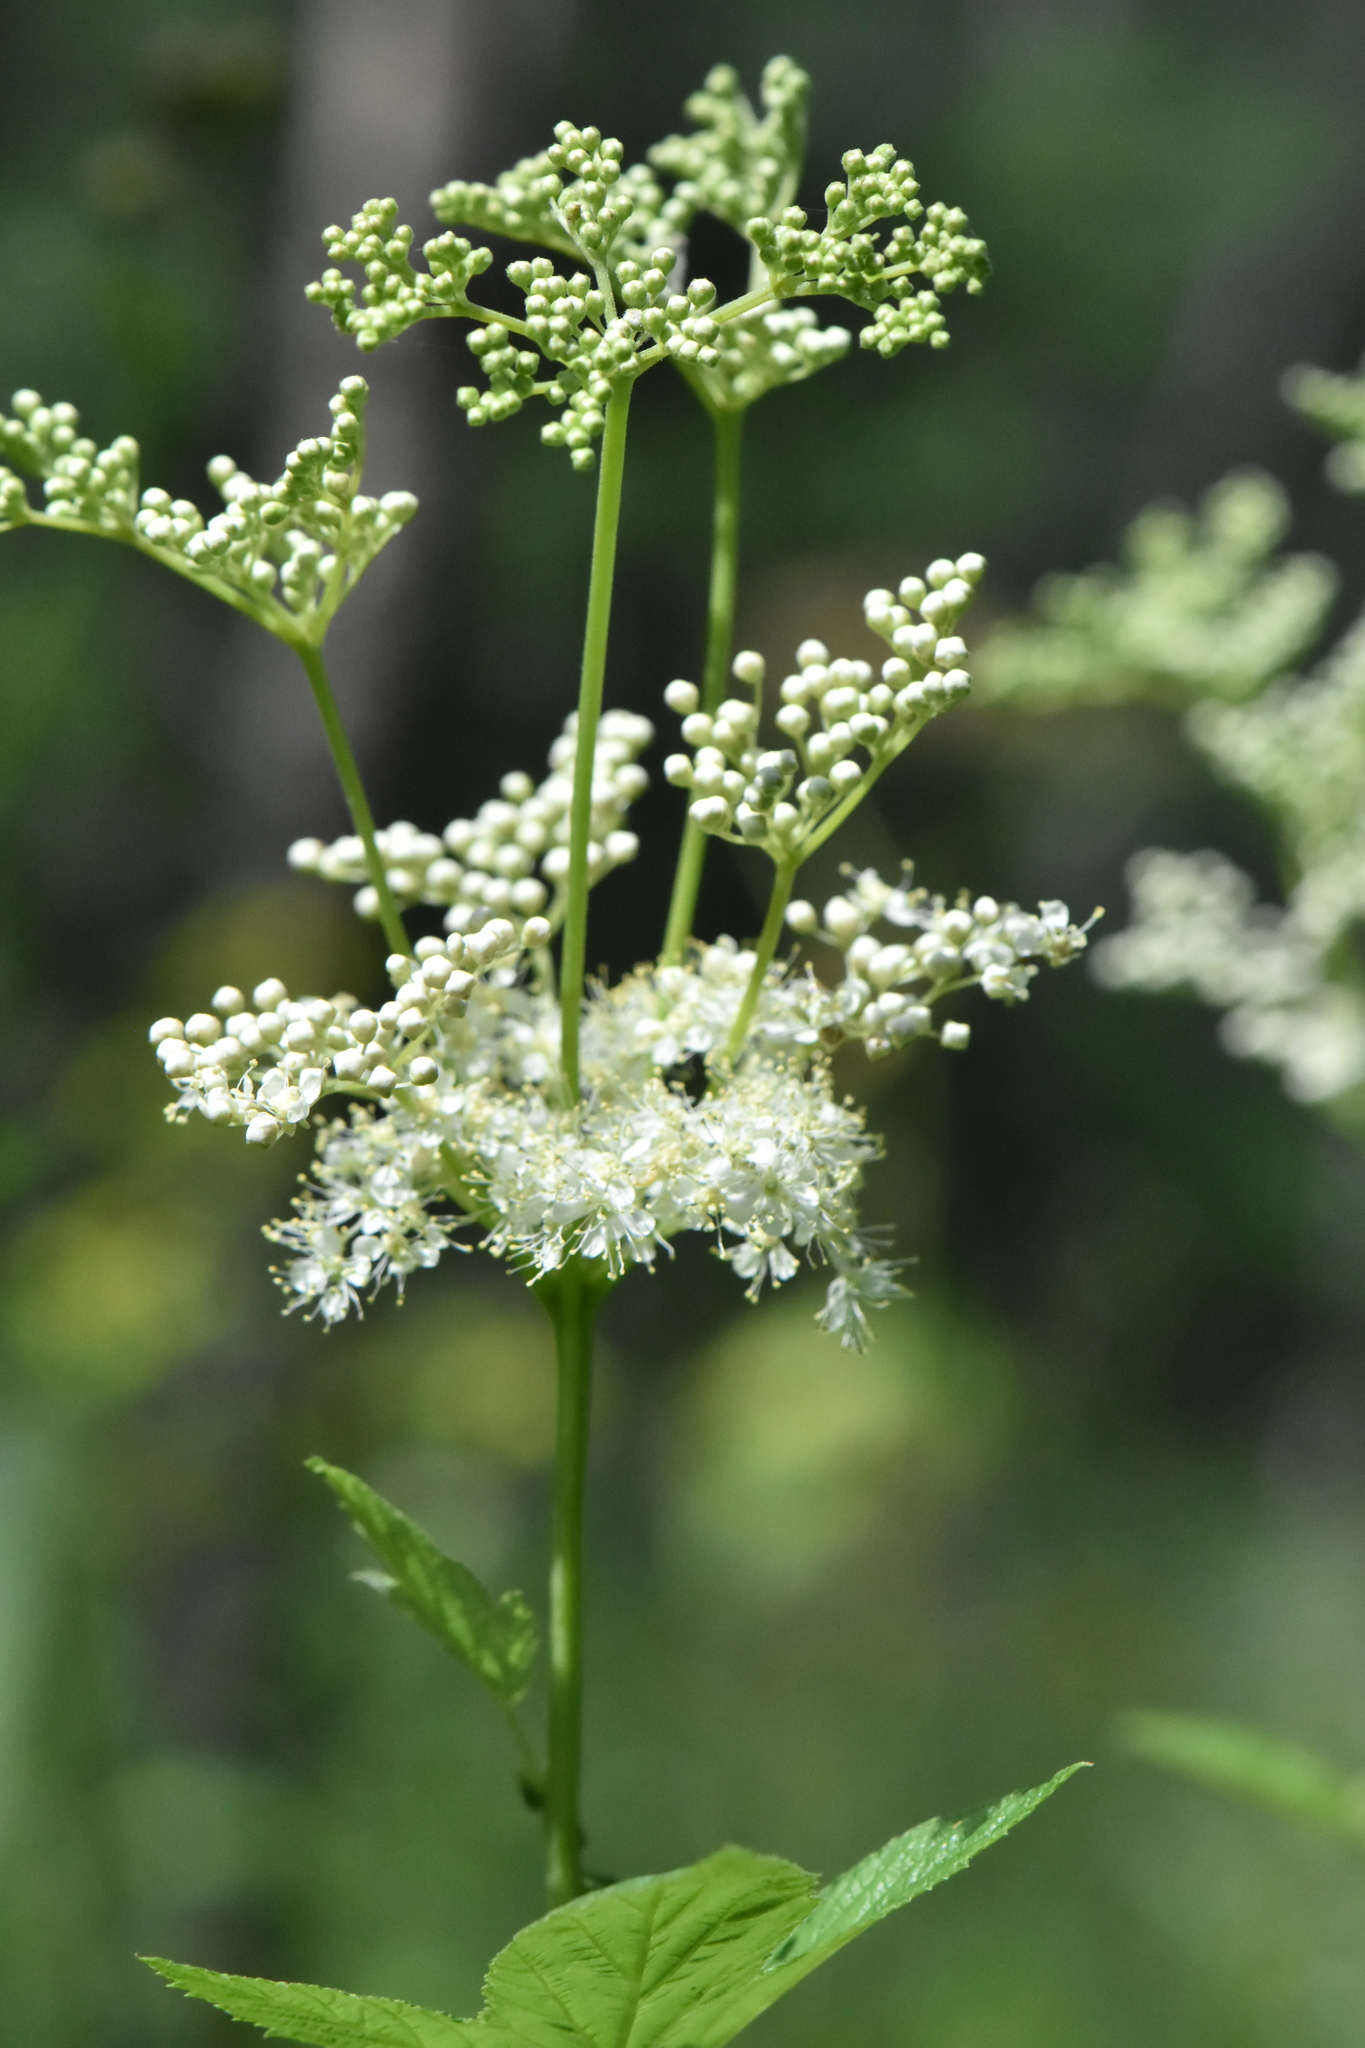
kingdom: Plantae
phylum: Tracheophyta
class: Magnoliopsida
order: Rosales
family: Rosaceae
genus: Filipendula
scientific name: Filipendula ulmaria
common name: Meadowsweet
